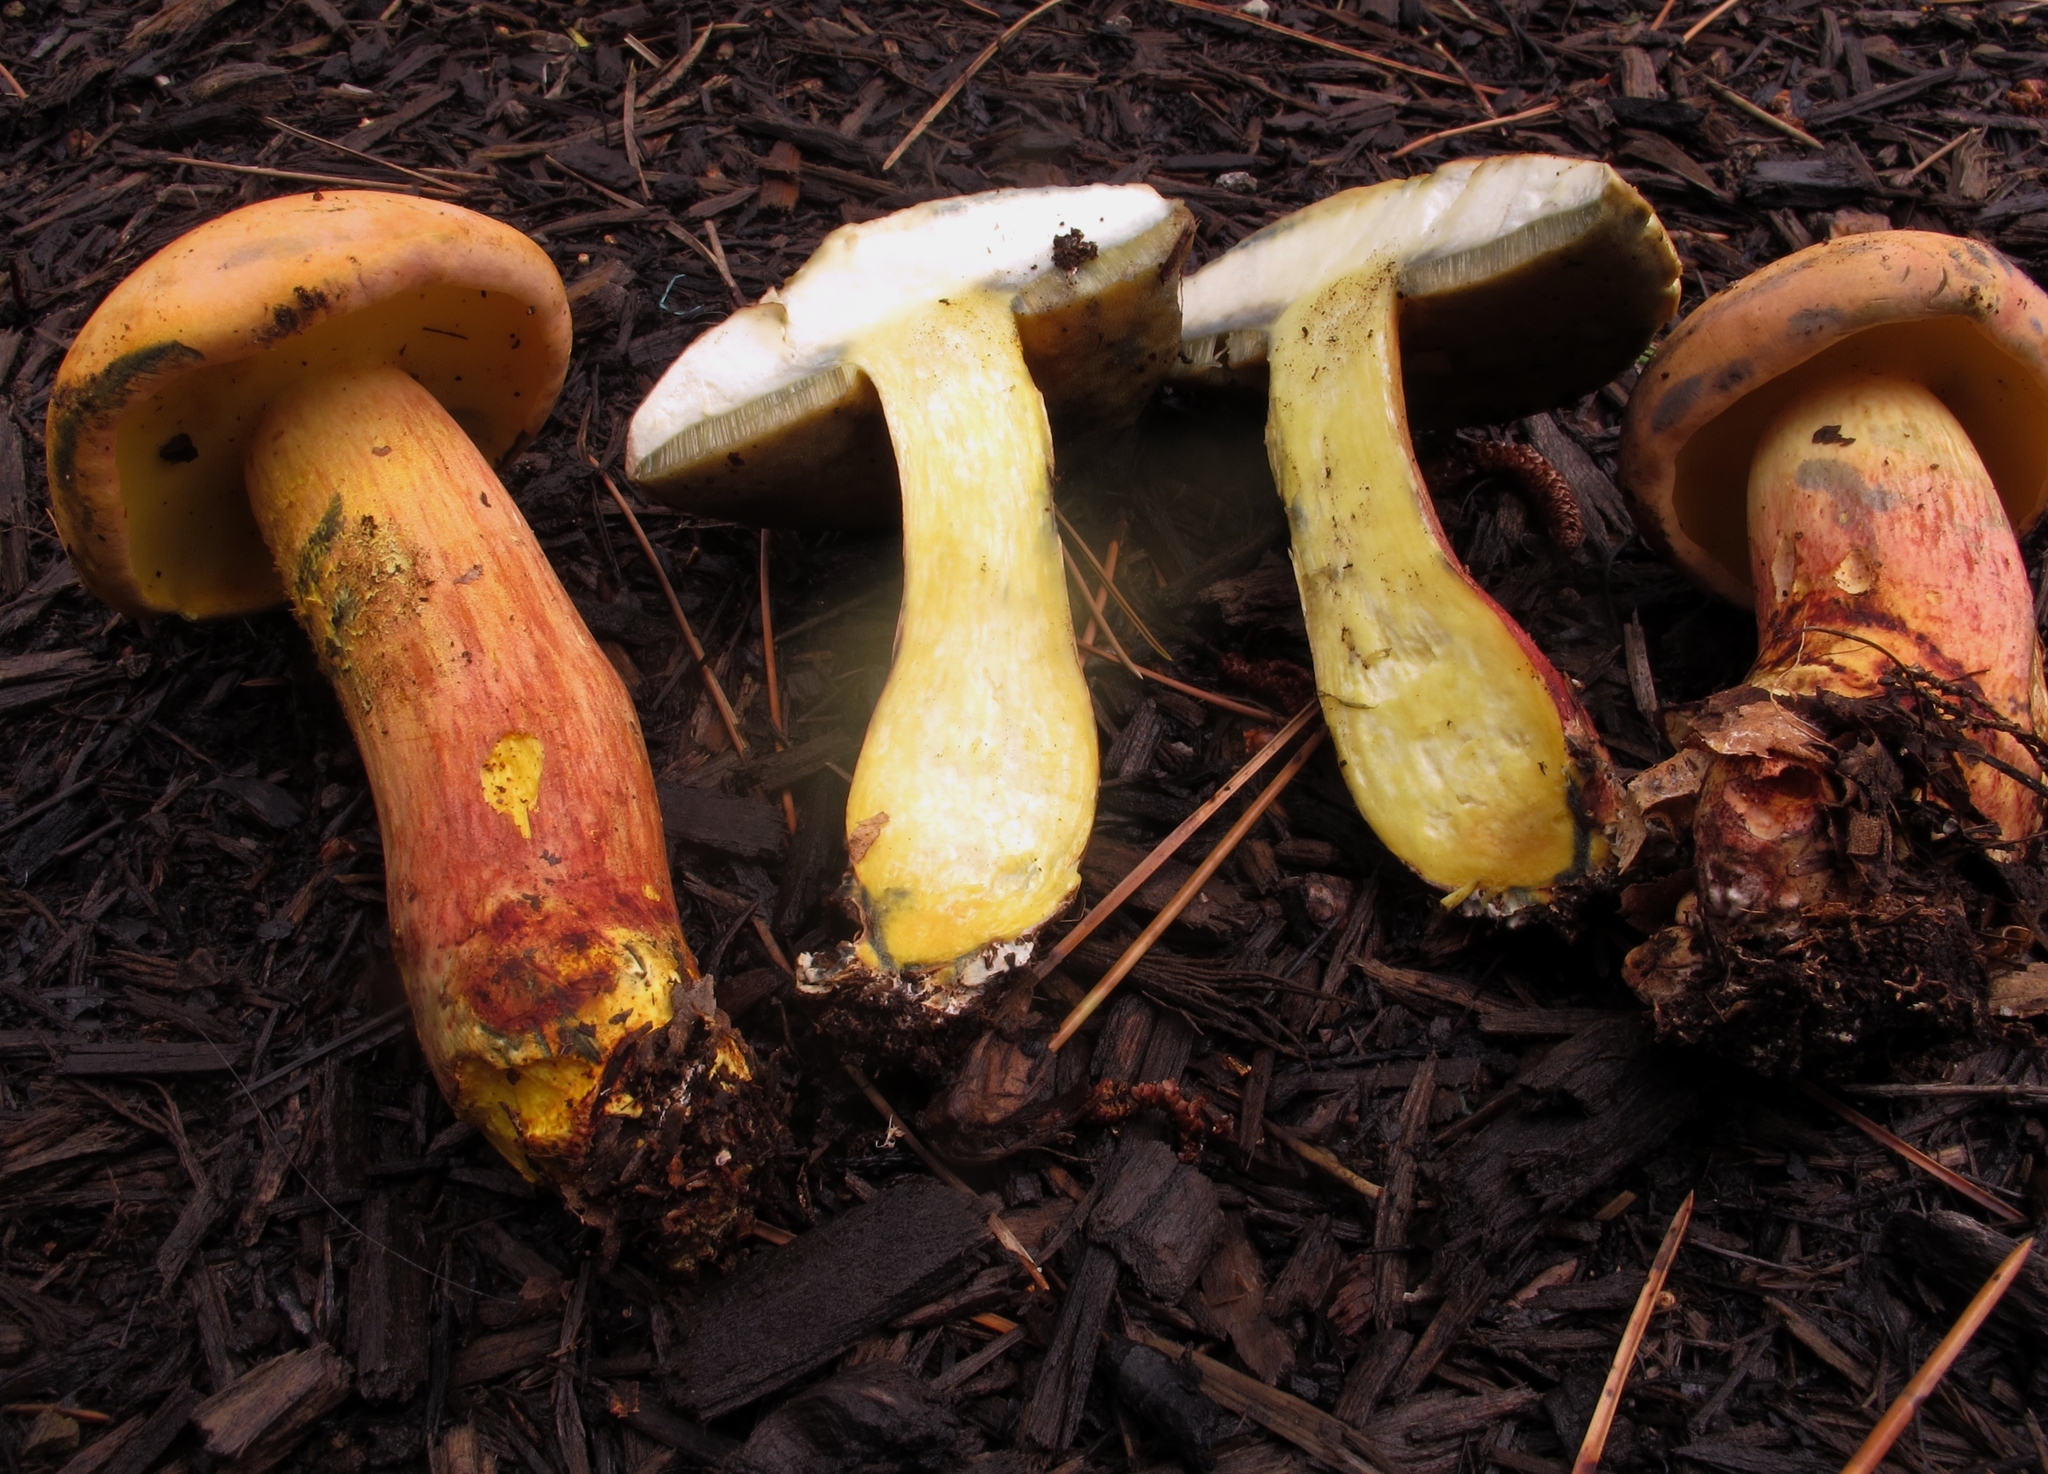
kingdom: Fungi
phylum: Basidiomycota
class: Agaricomycetes
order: Boletales
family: Boletaceae
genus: Lanmaoa
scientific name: Lanmaoa pallidorosea
